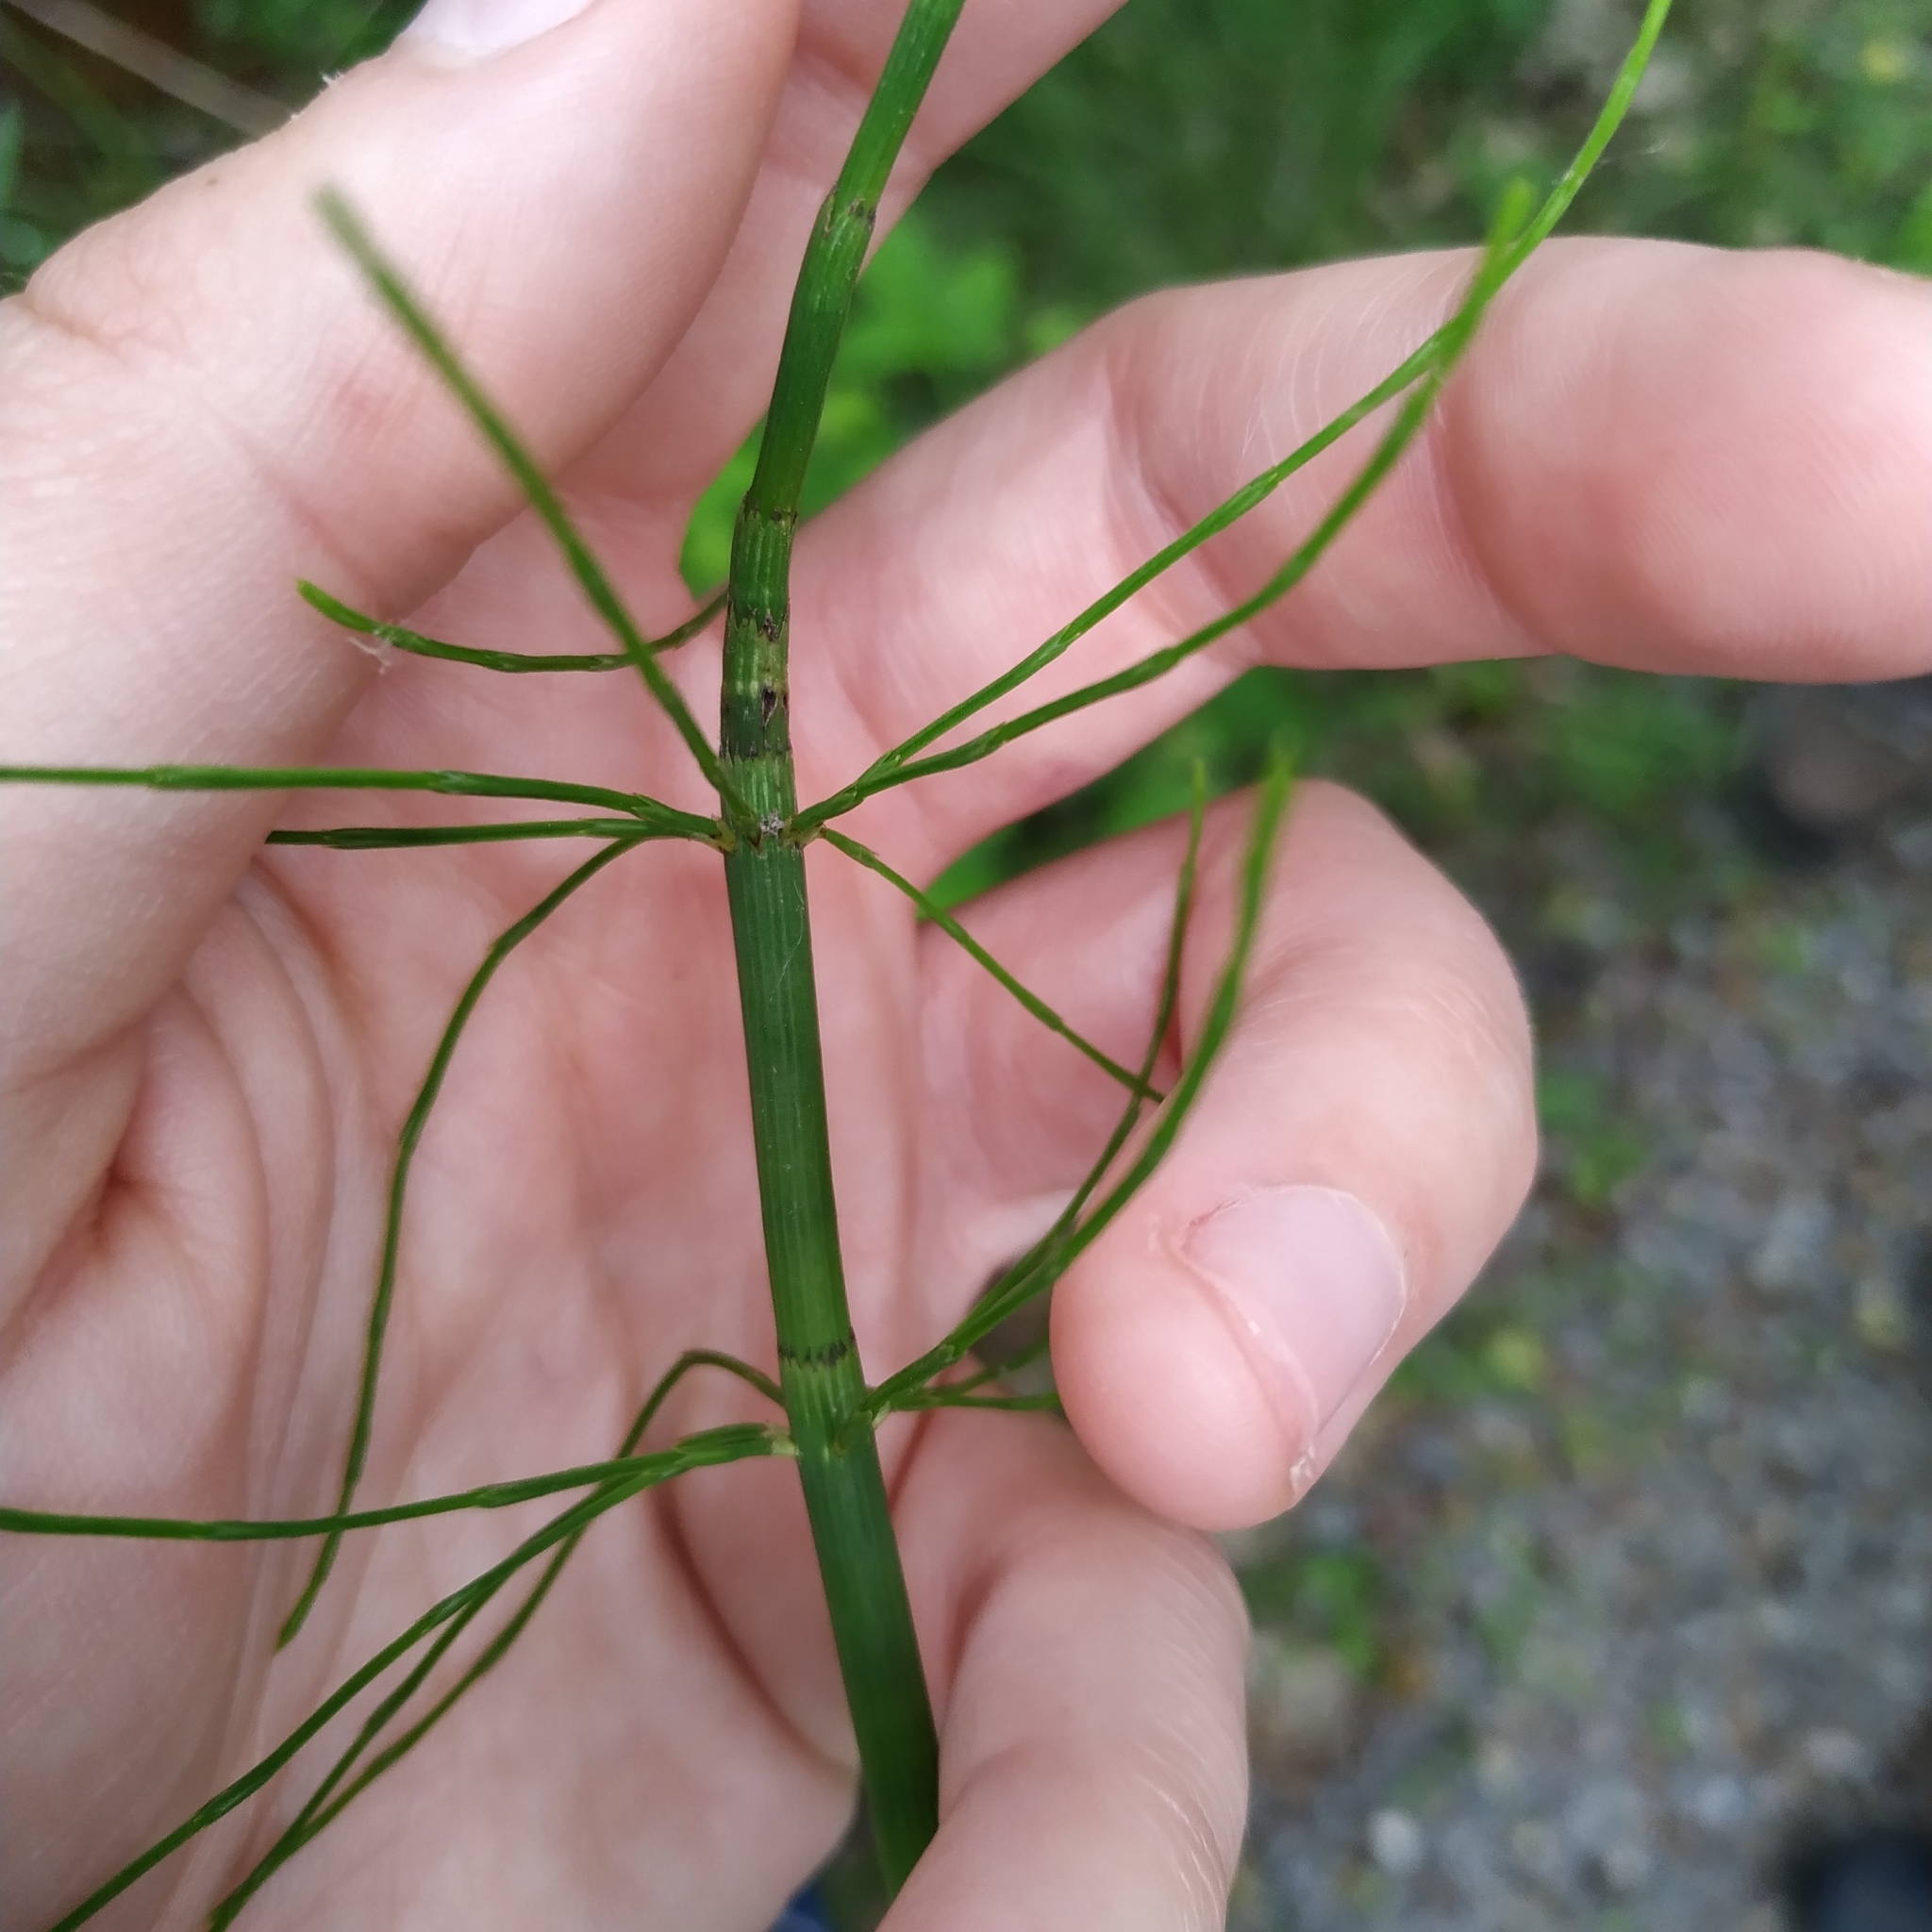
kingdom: Plantae
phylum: Tracheophyta
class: Polypodiopsida
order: Equisetales
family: Equisetaceae
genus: Equisetum
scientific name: Equisetum fluviatile
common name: Water horsetail
